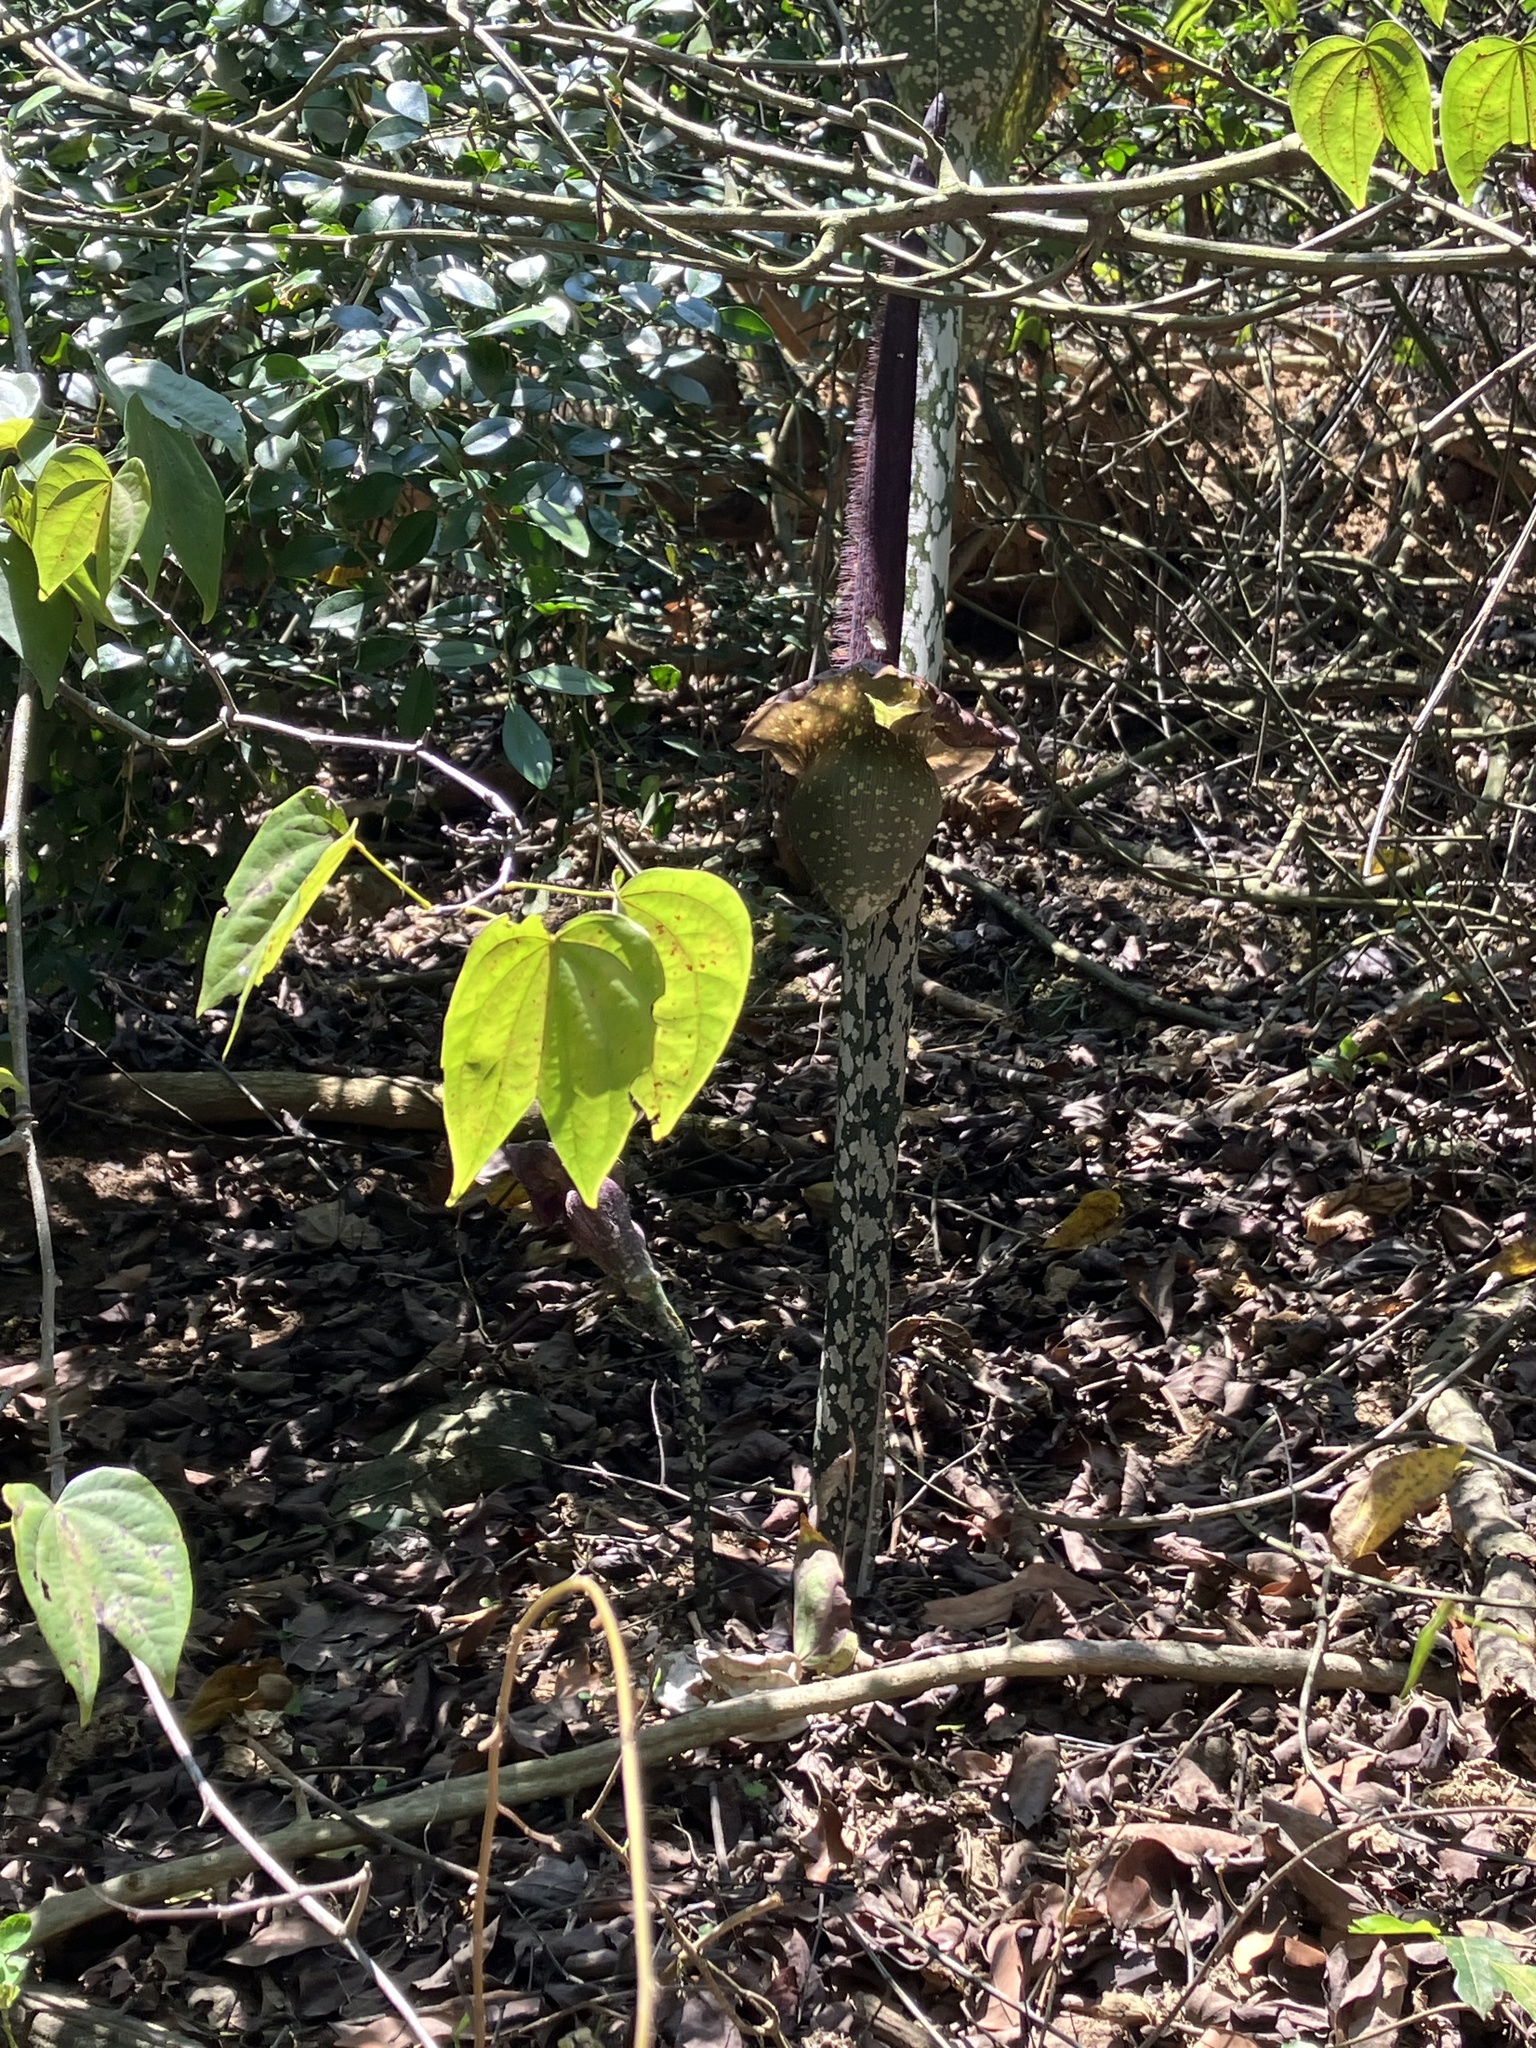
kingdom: Plantae
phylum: Tracheophyta
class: Liliopsida
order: Alismatales
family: Araceae
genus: Amorphophallus
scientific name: Amorphophallus hirtus
